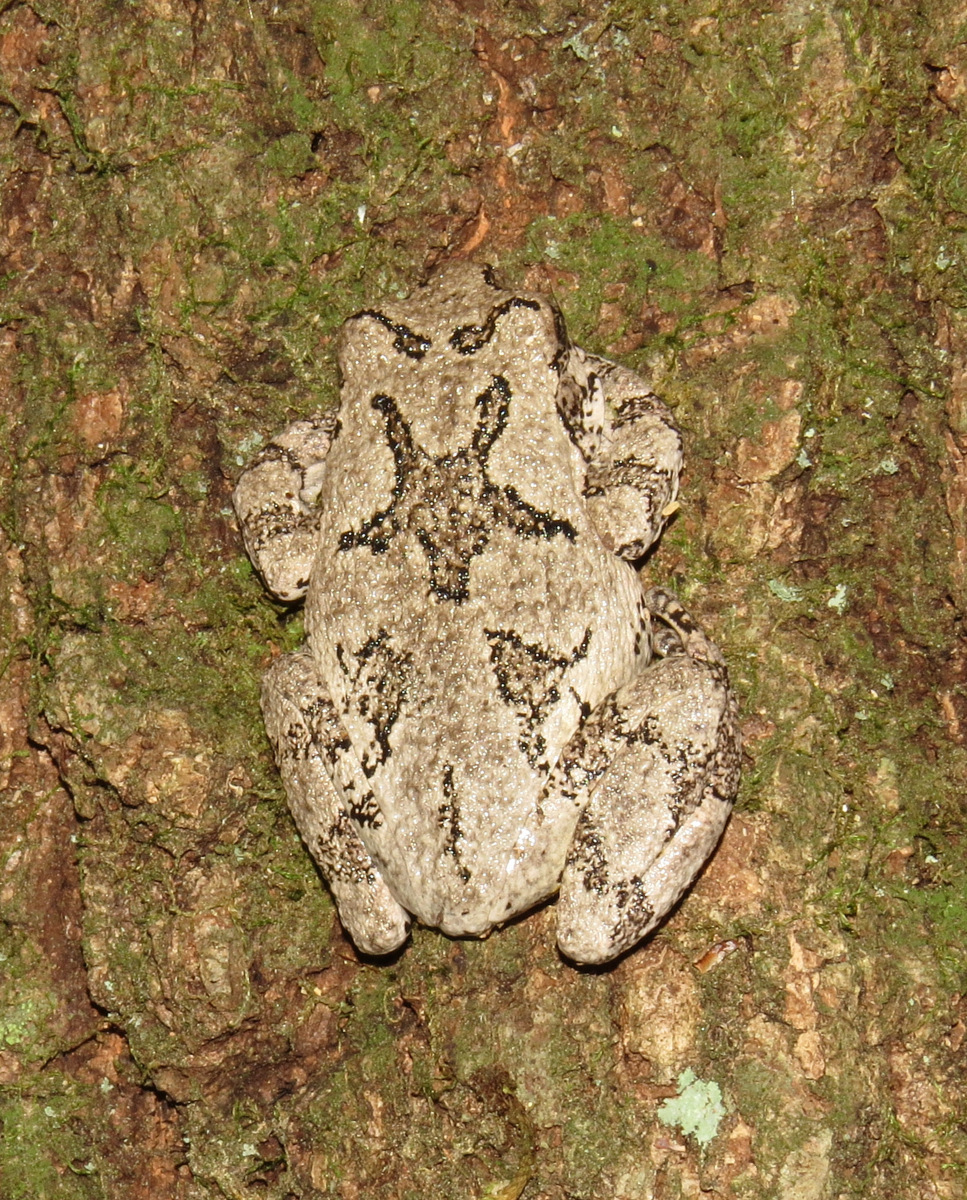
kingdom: Animalia
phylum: Chordata
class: Amphibia
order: Anura
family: Hylidae
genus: Dryophytes
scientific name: Dryophytes versicolor
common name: Gray treefrog
